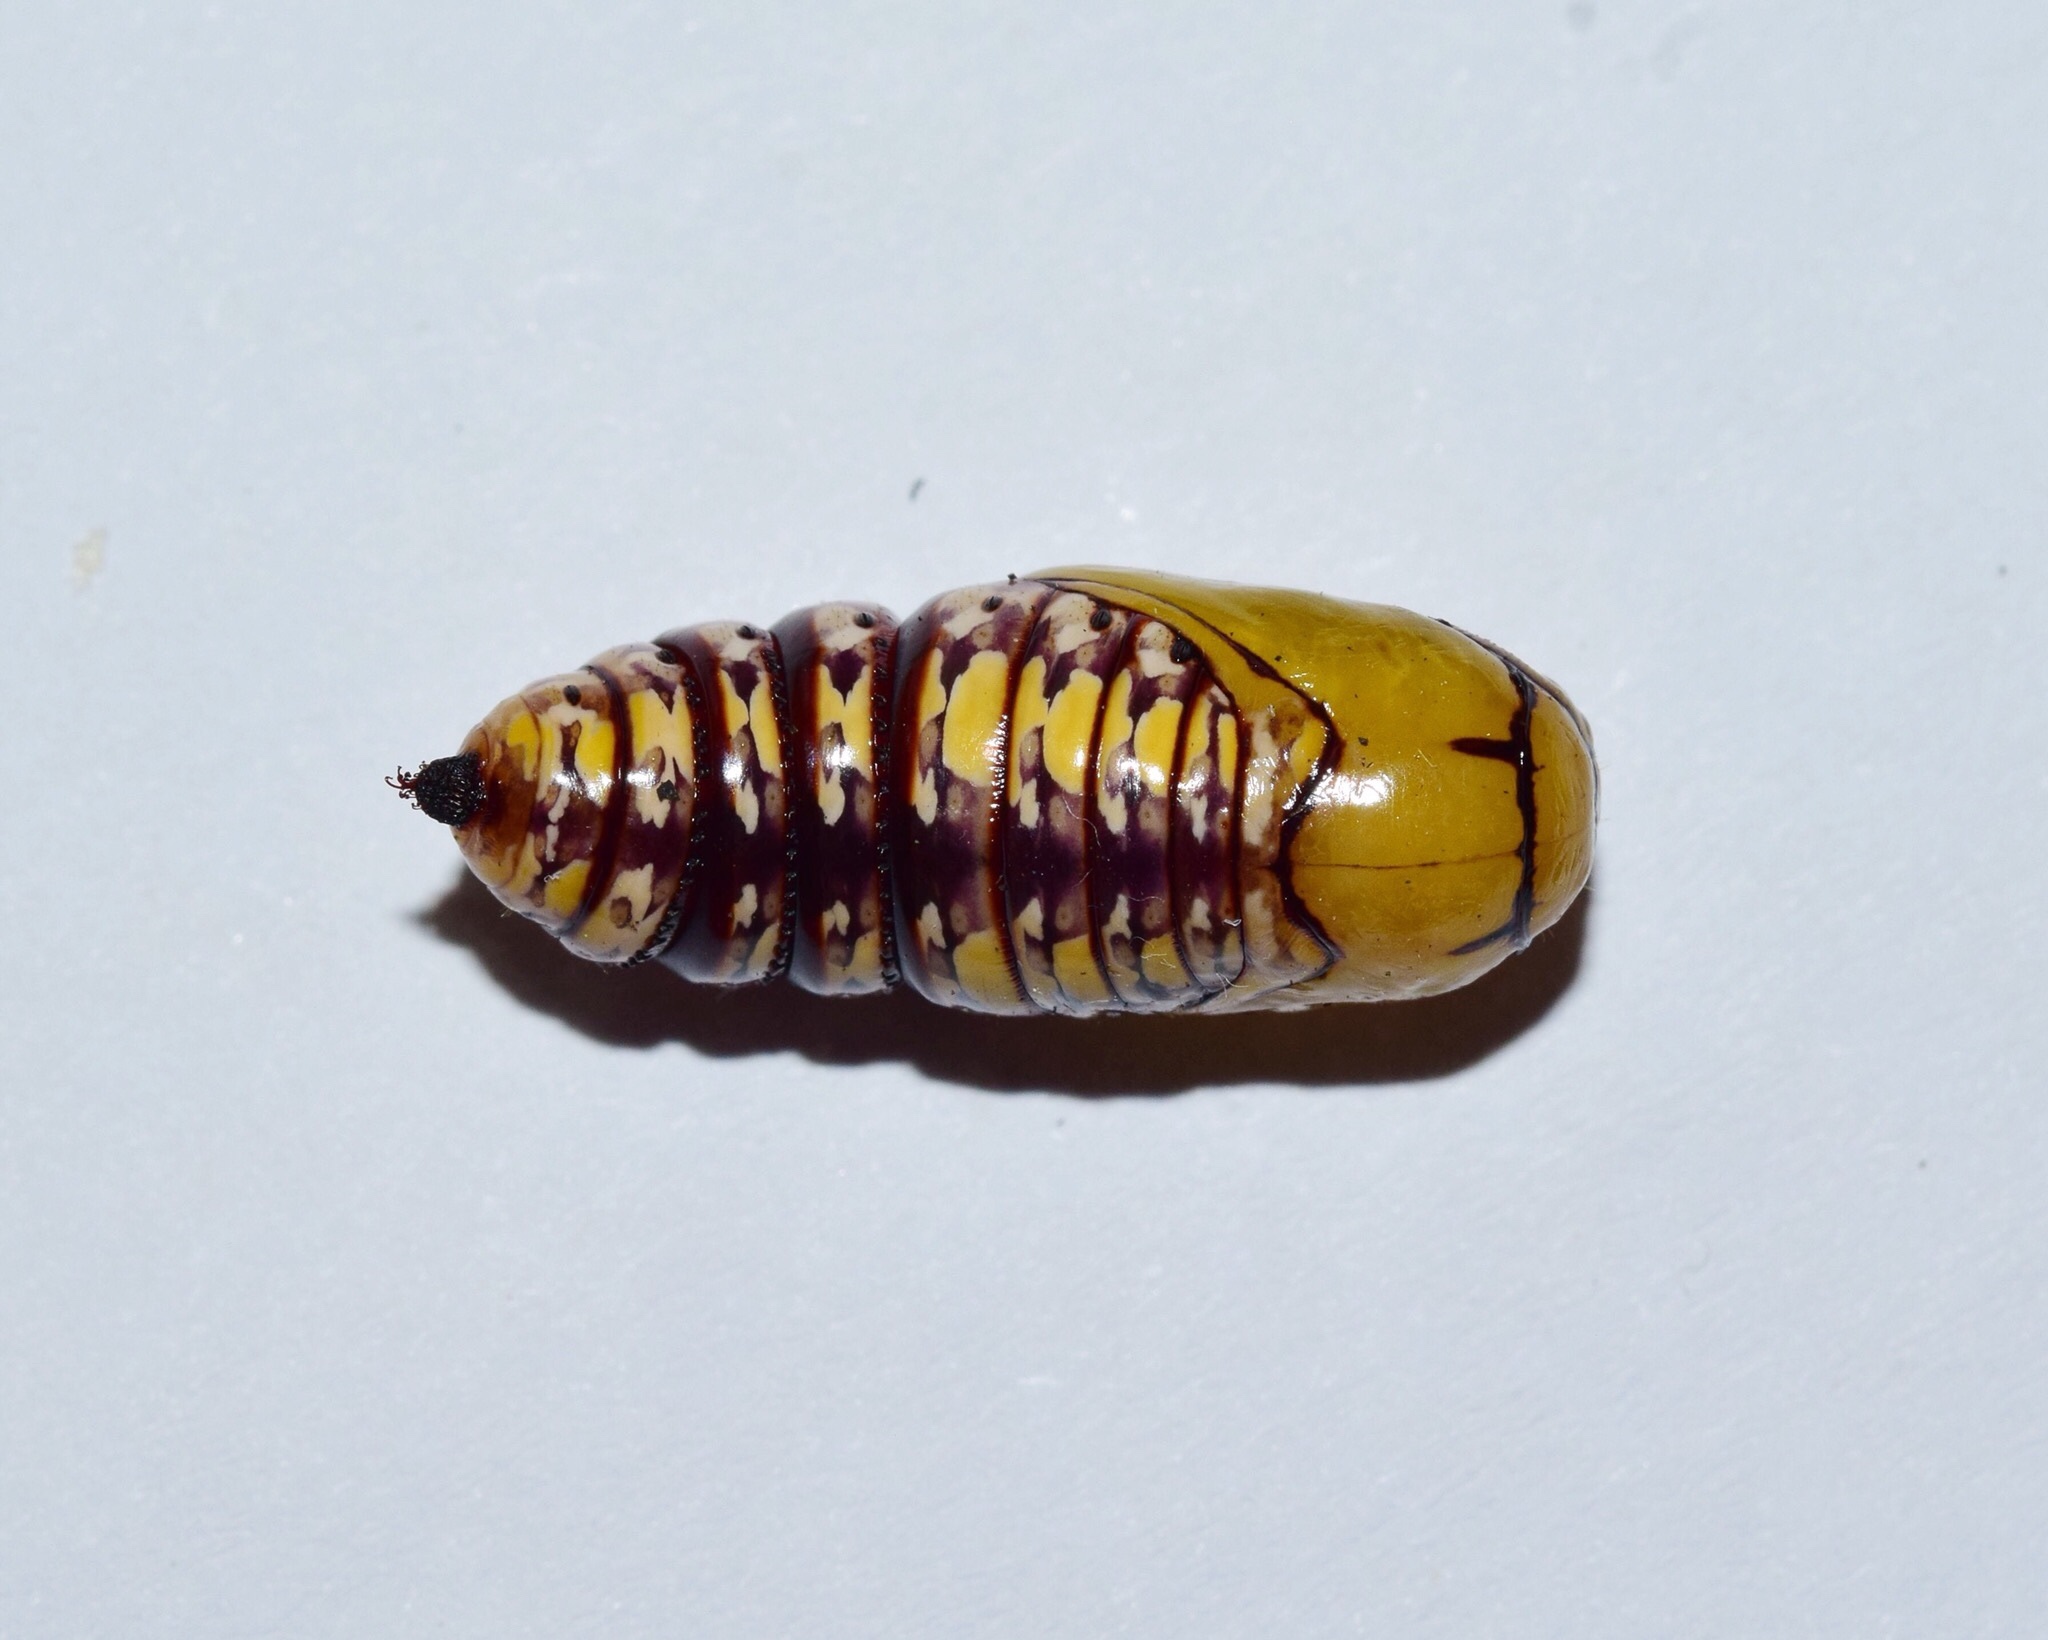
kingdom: Animalia
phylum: Arthropoda
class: Insecta
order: Lepidoptera
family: Noctuidae
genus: Nyodes
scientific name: Nyodes acatharta
